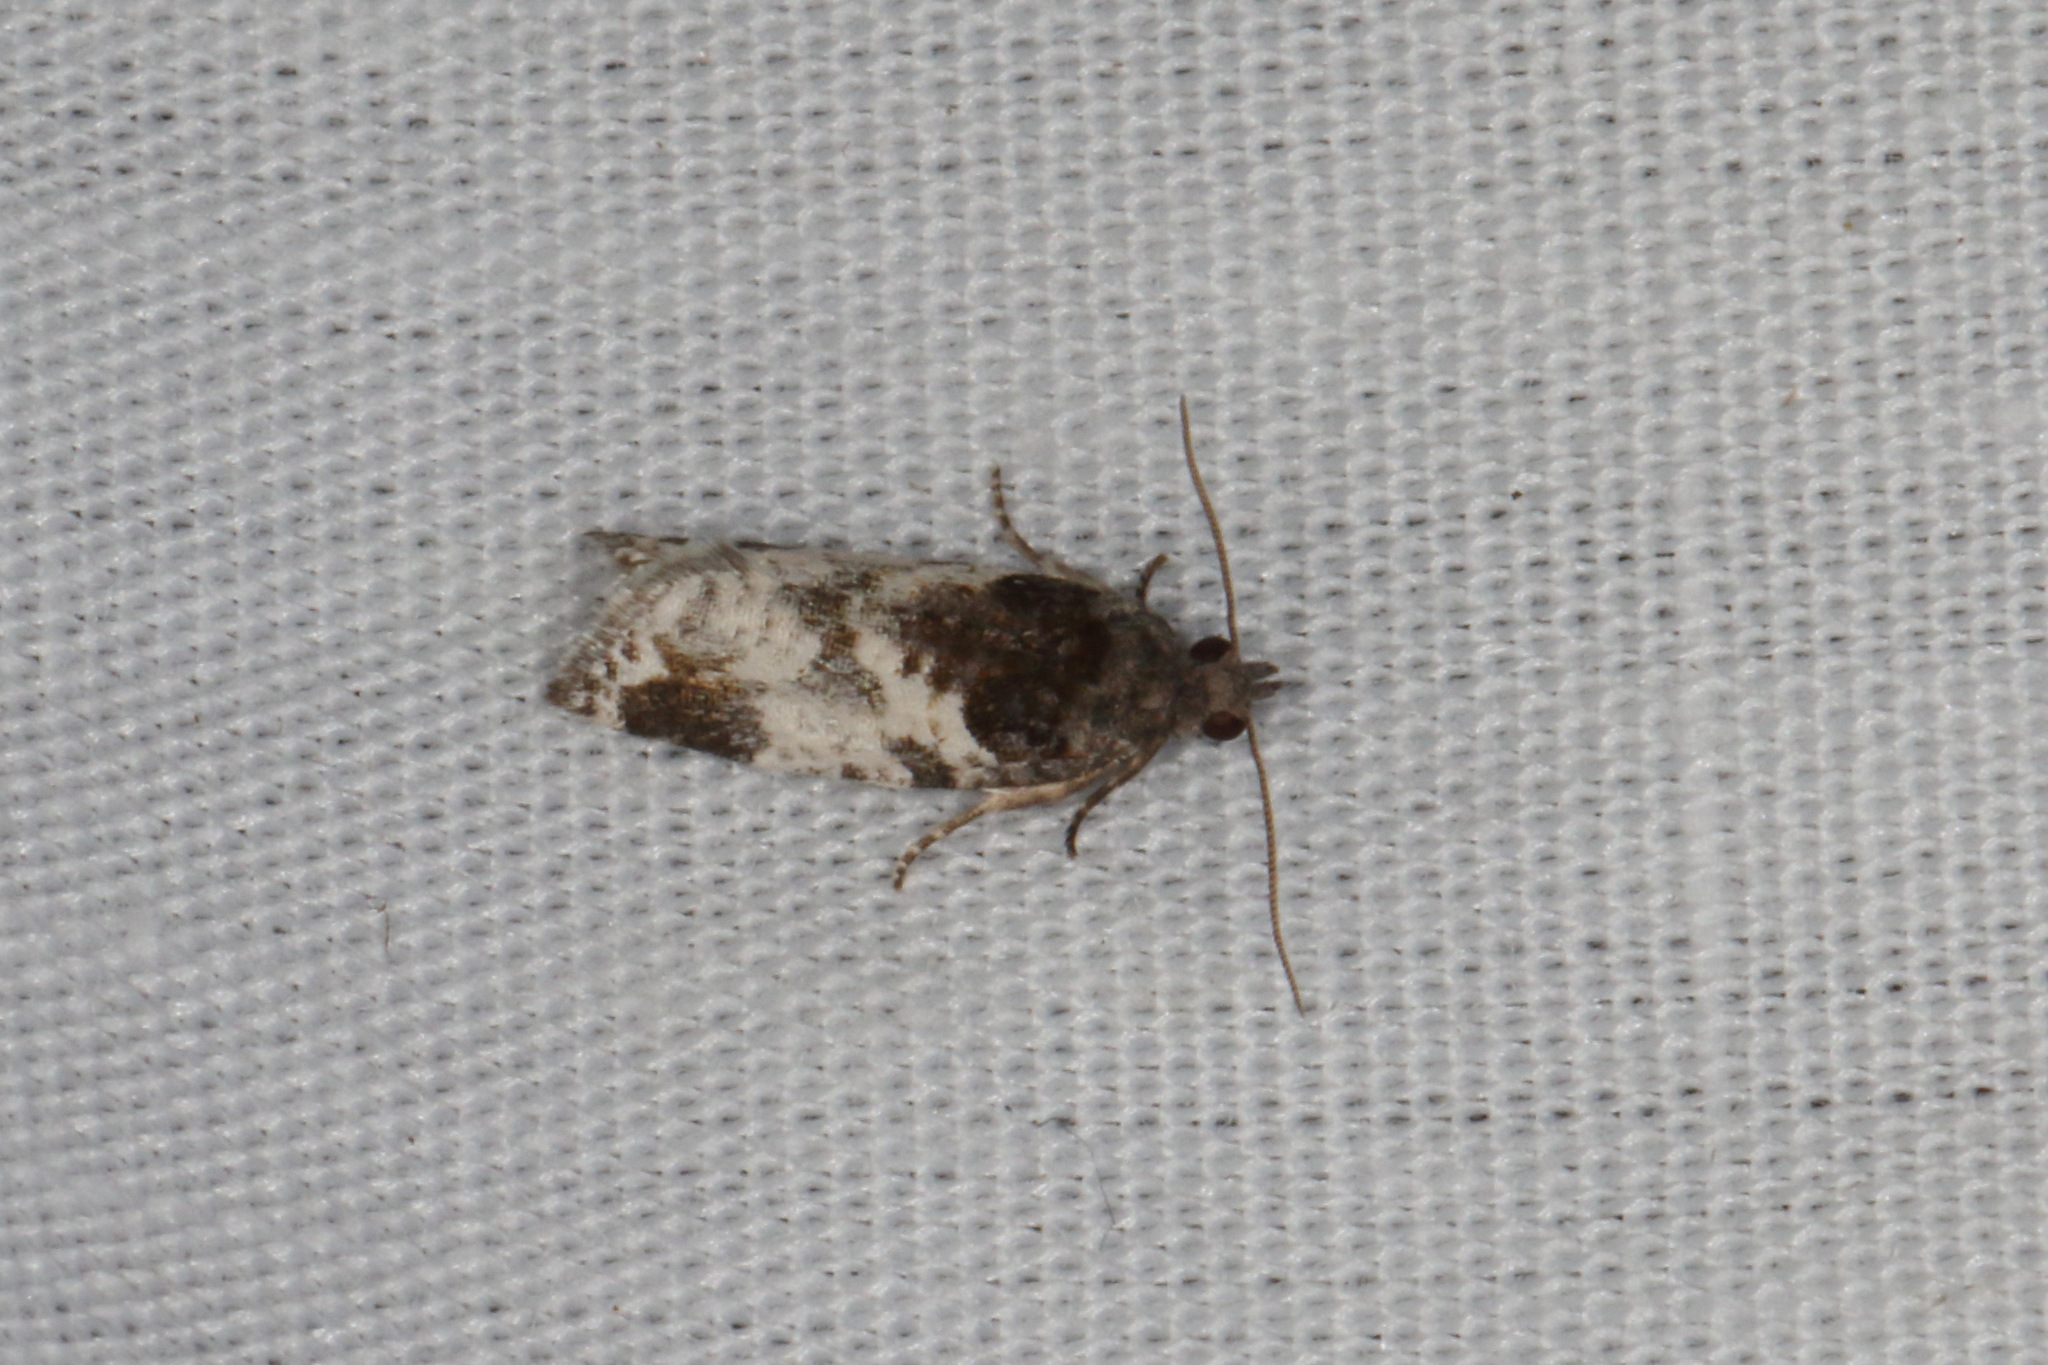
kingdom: Animalia
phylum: Arthropoda
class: Insecta
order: Lepidoptera
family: Tortricidae
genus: Pyrgotis
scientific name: Pyrgotis calligypsa
